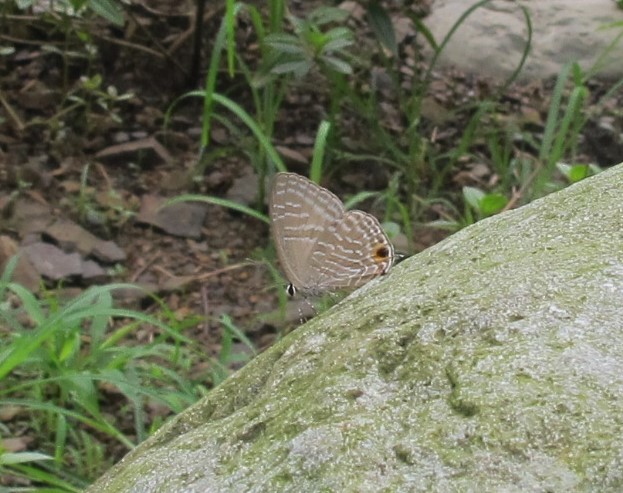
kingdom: Animalia
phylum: Arthropoda
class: Insecta
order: Lepidoptera
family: Lycaenidae
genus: Jamides
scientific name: Jamides alecto
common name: Metallic cerulean
